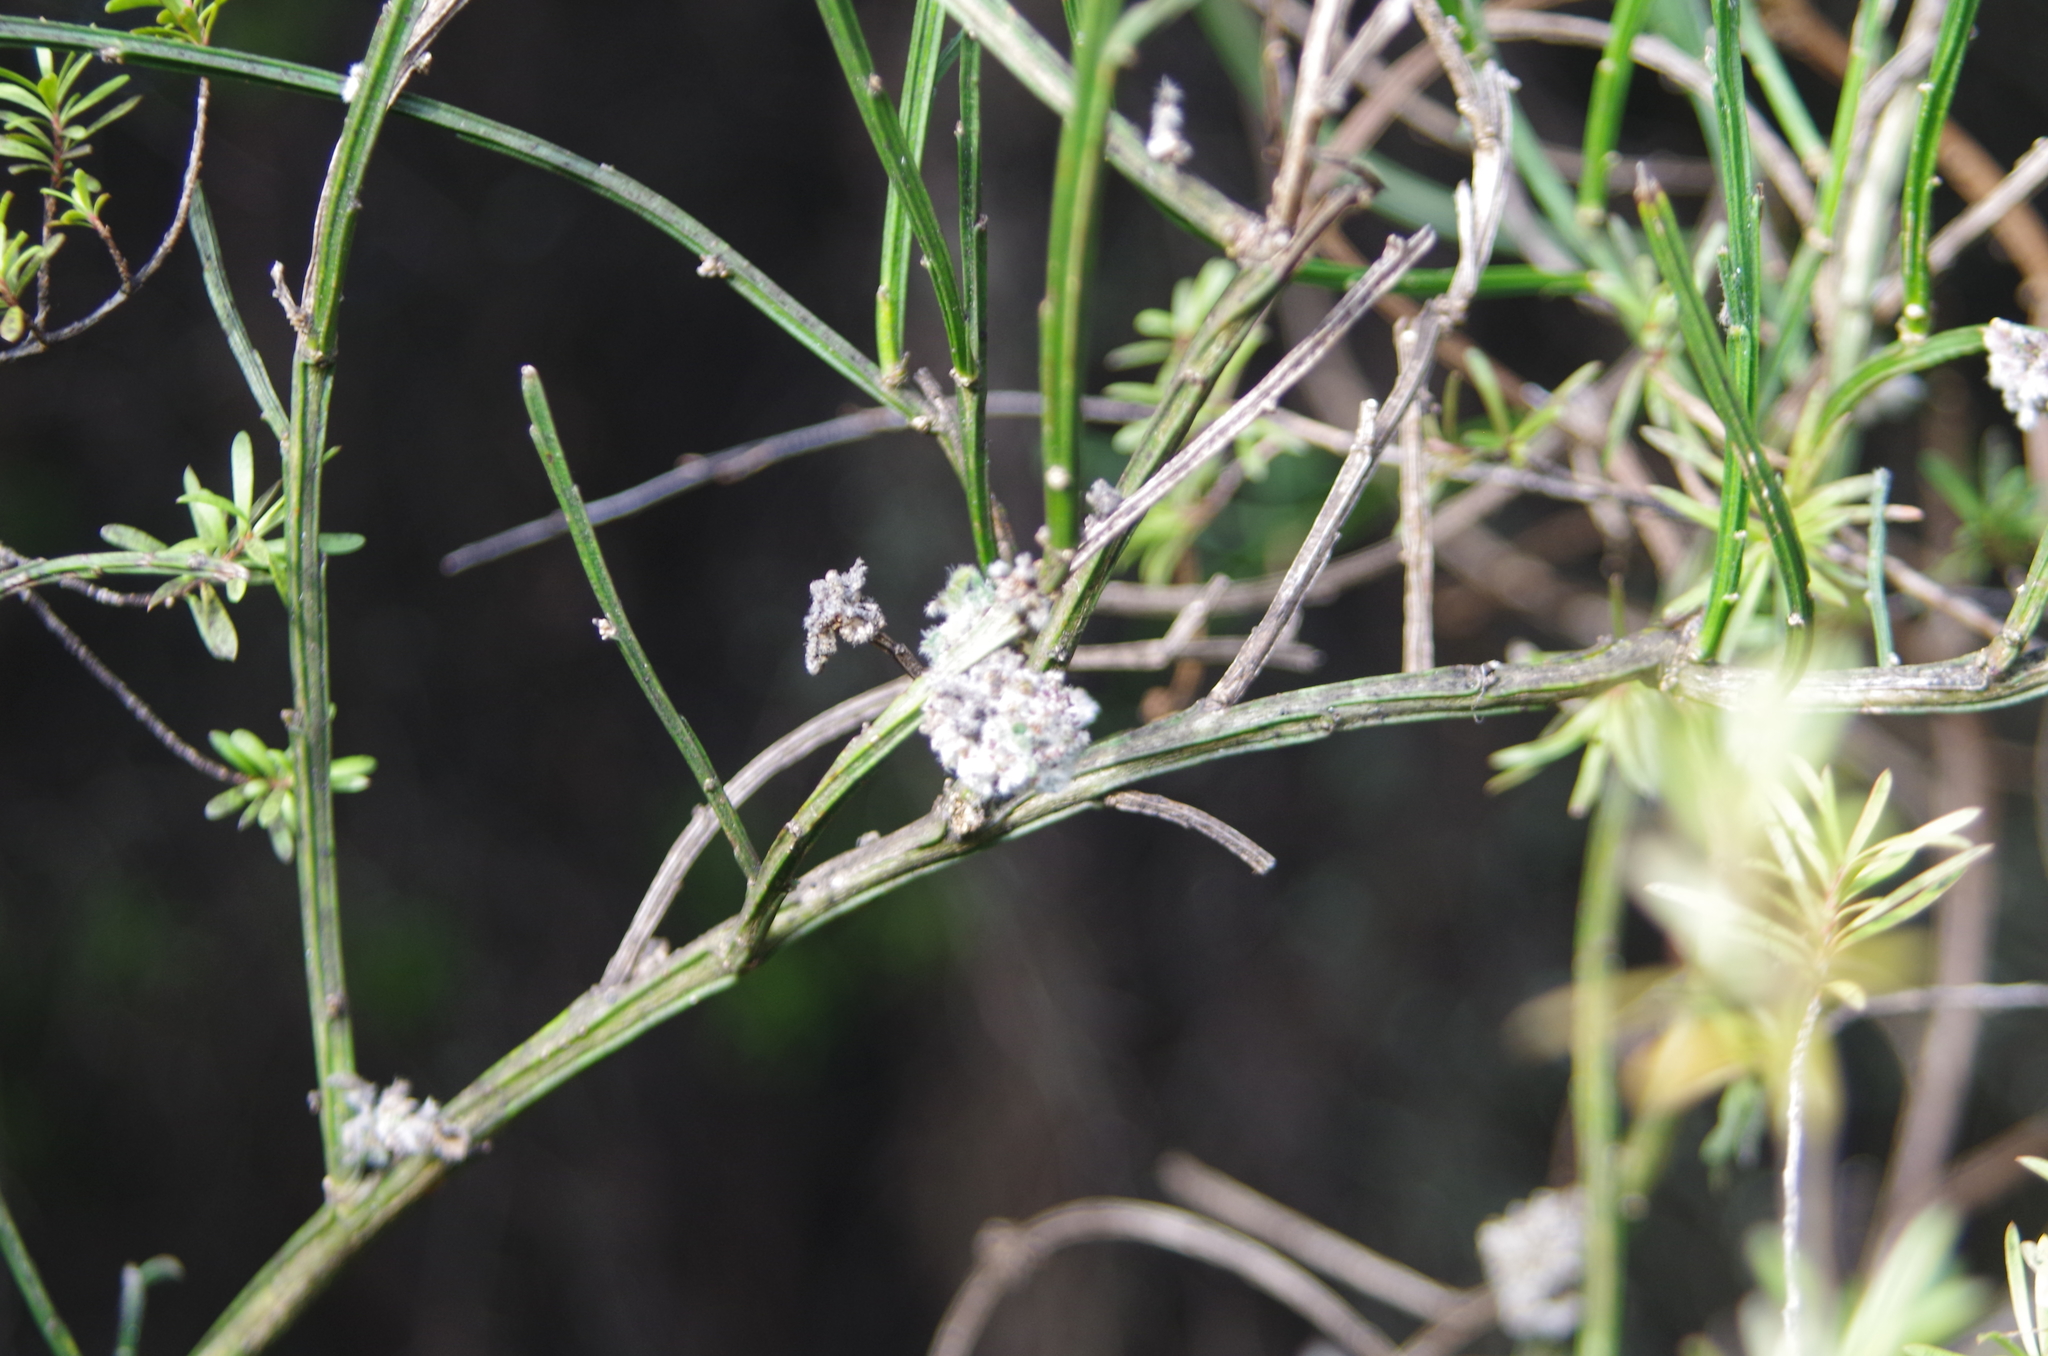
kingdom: Plantae
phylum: Tracheophyta
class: Magnoliopsida
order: Fabales
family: Fabaceae
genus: Cytisus
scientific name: Cytisus scoparius
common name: Scotch broom
